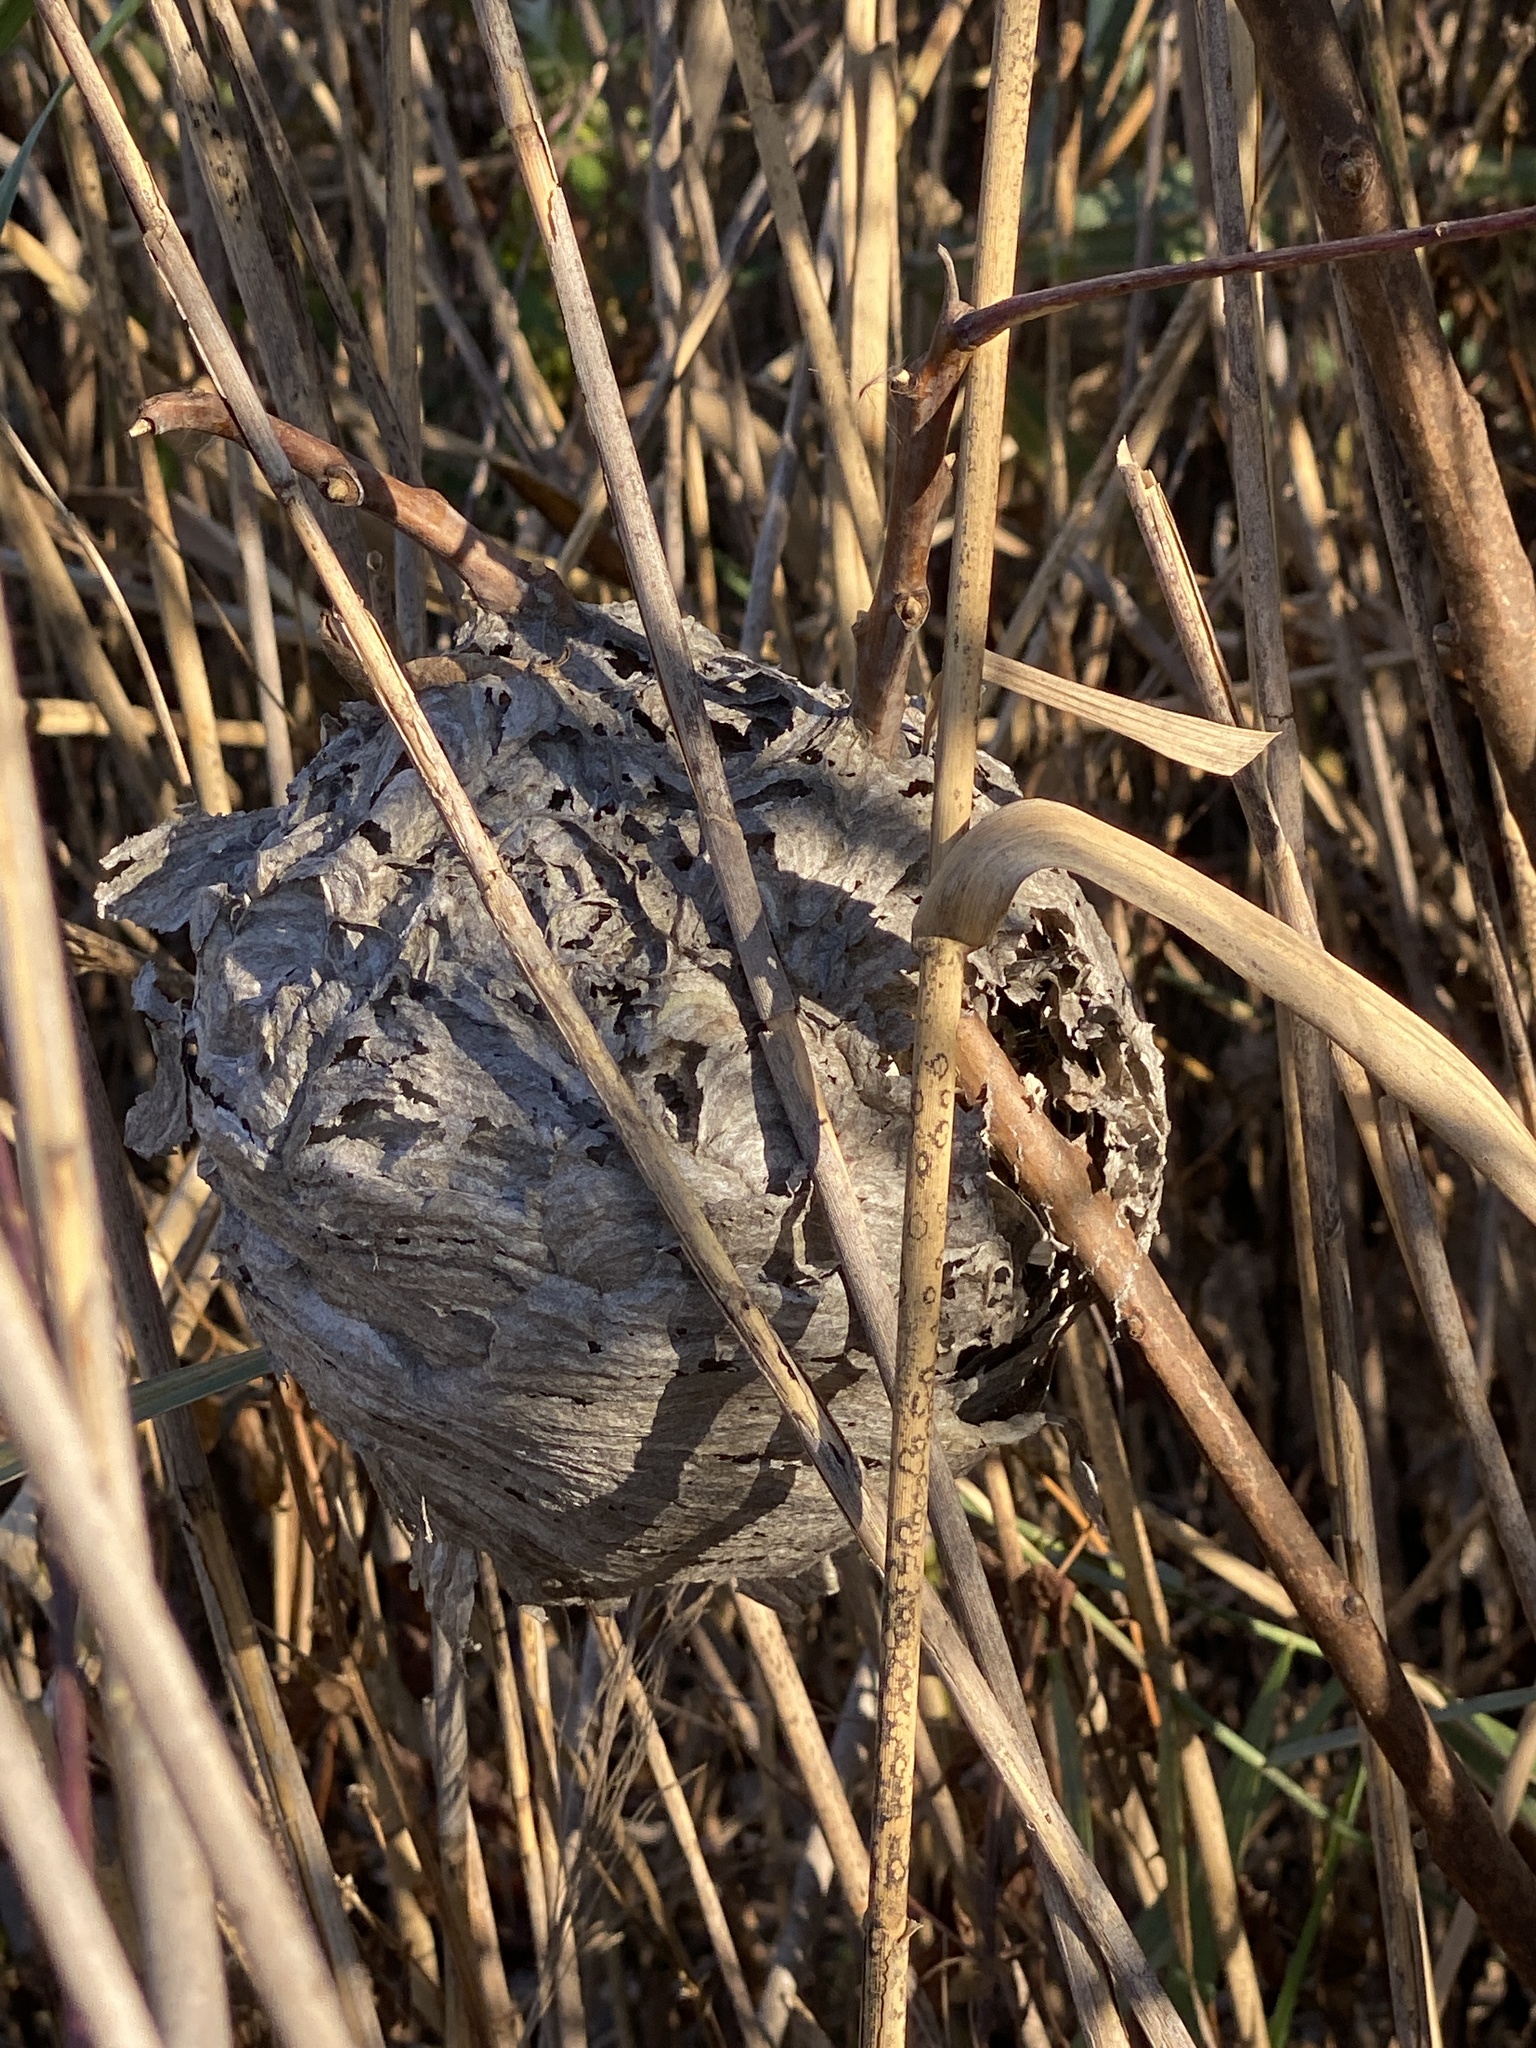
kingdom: Animalia
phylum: Arthropoda
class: Insecta
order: Hymenoptera
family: Vespidae
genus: Dolichovespula
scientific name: Dolichovespula maculata
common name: Bald-faced hornet
